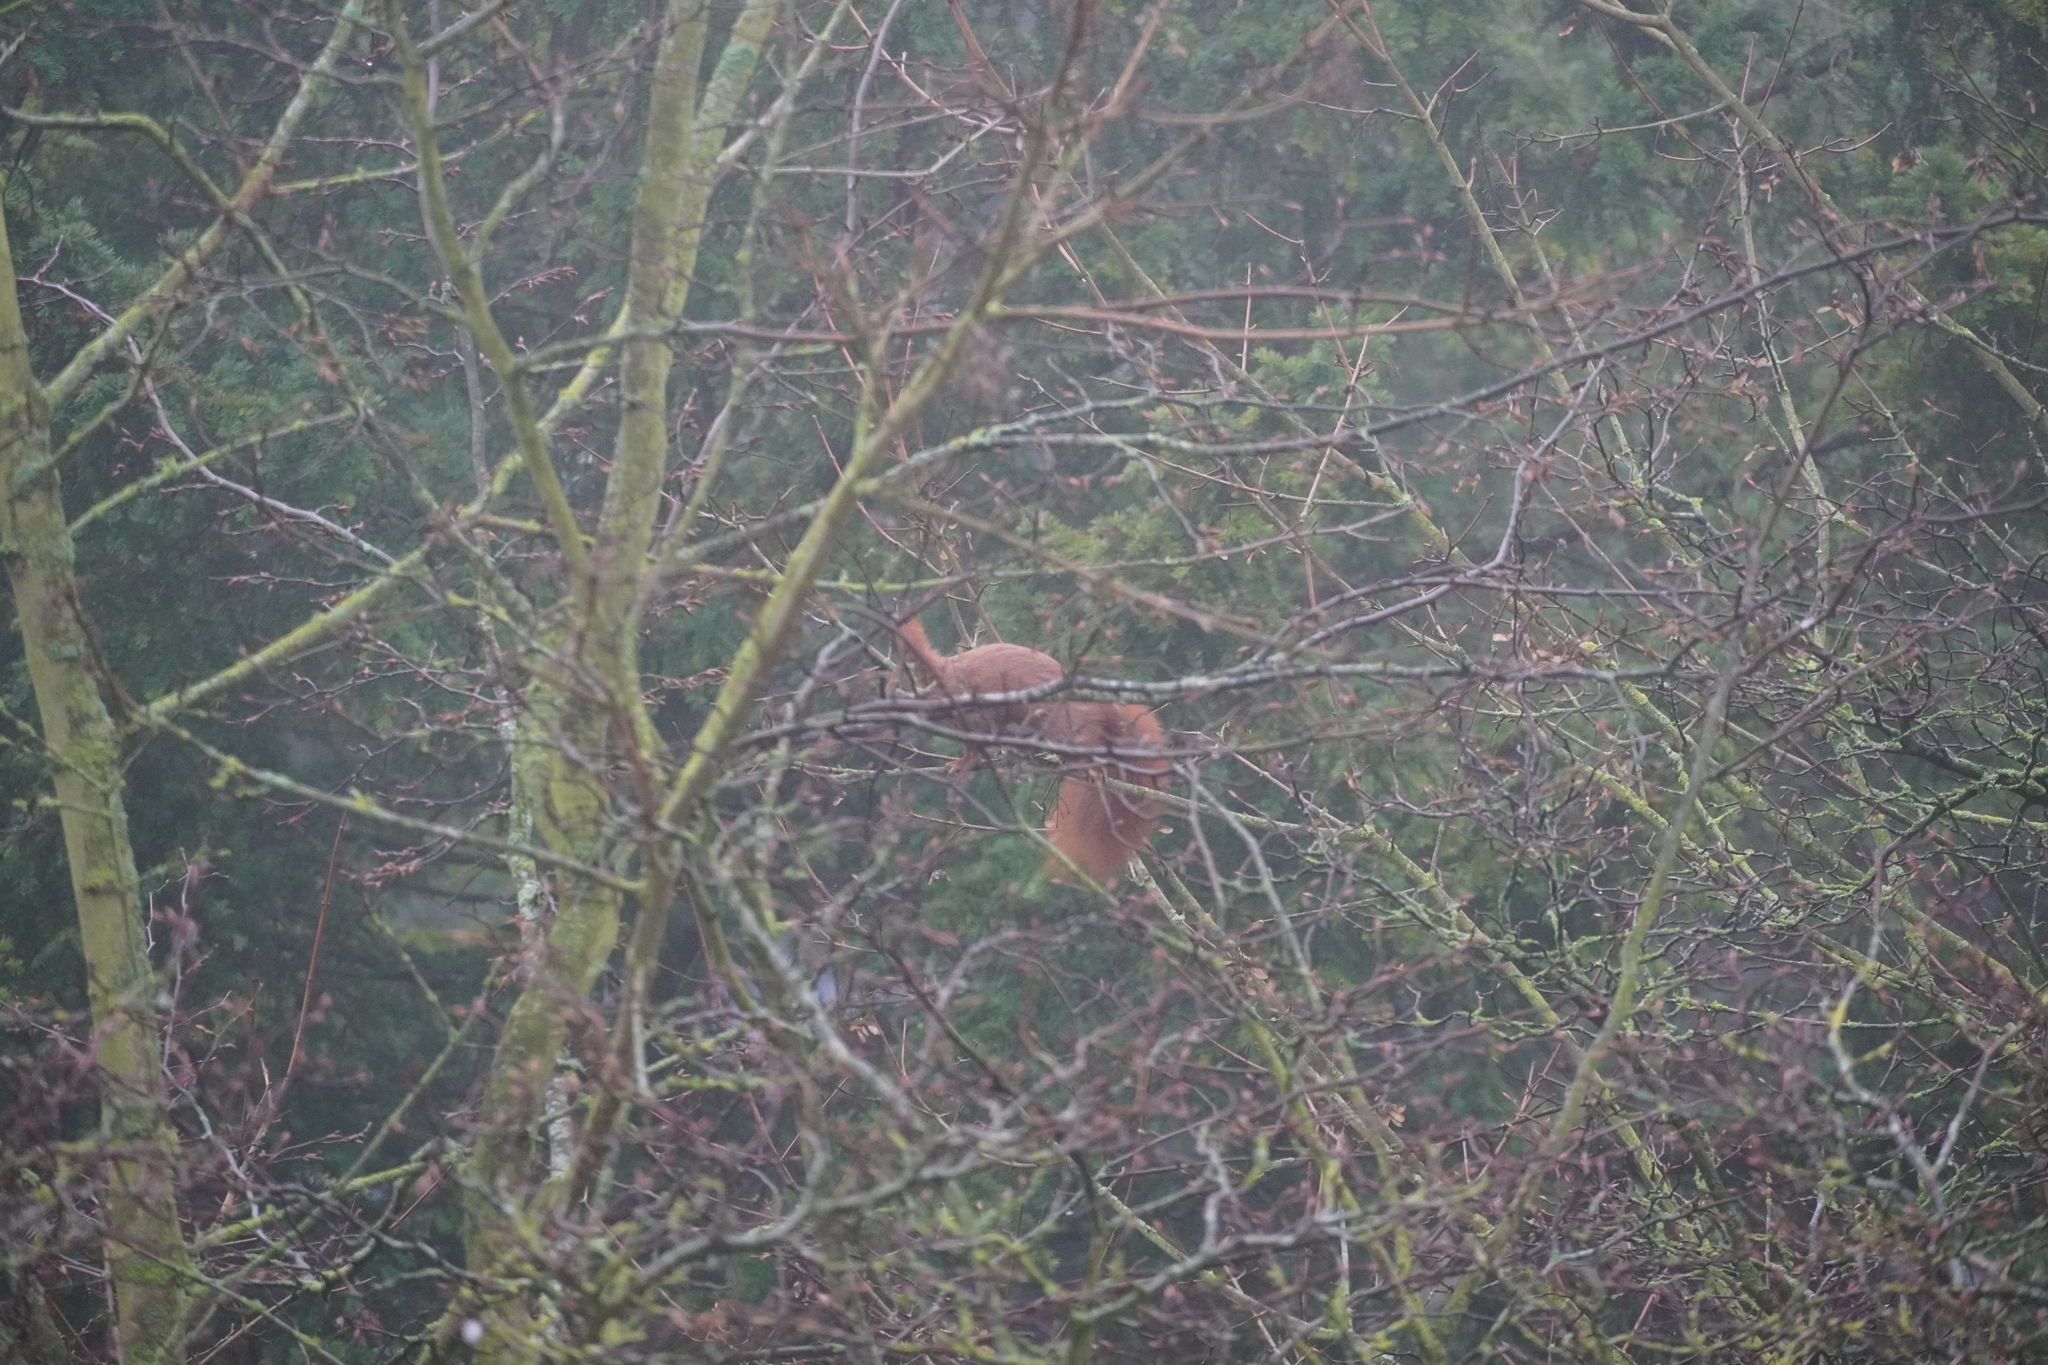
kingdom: Animalia
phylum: Chordata
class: Mammalia
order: Rodentia
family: Sciuridae
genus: Sciurus
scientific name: Sciurus vulgaris
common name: Eurasian red squirrel
